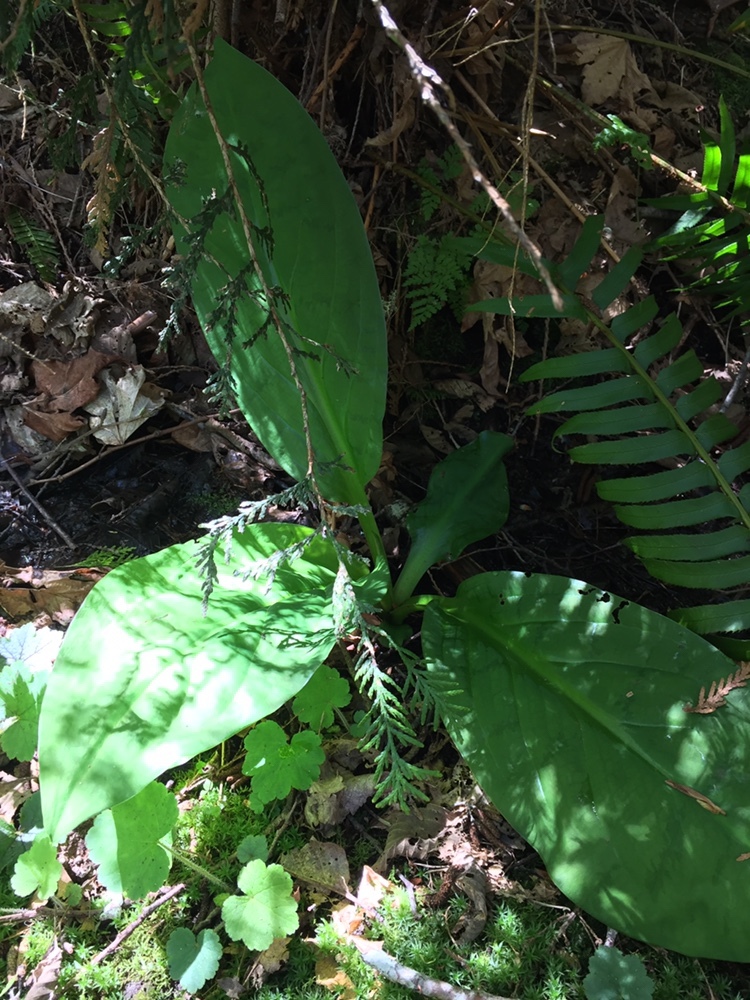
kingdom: Plantae
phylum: Tracheophyta
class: Liliopsida
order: Alismatales
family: Araceae
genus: Lysichiton
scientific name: Lysichiton americanus
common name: American skunk cabbage
